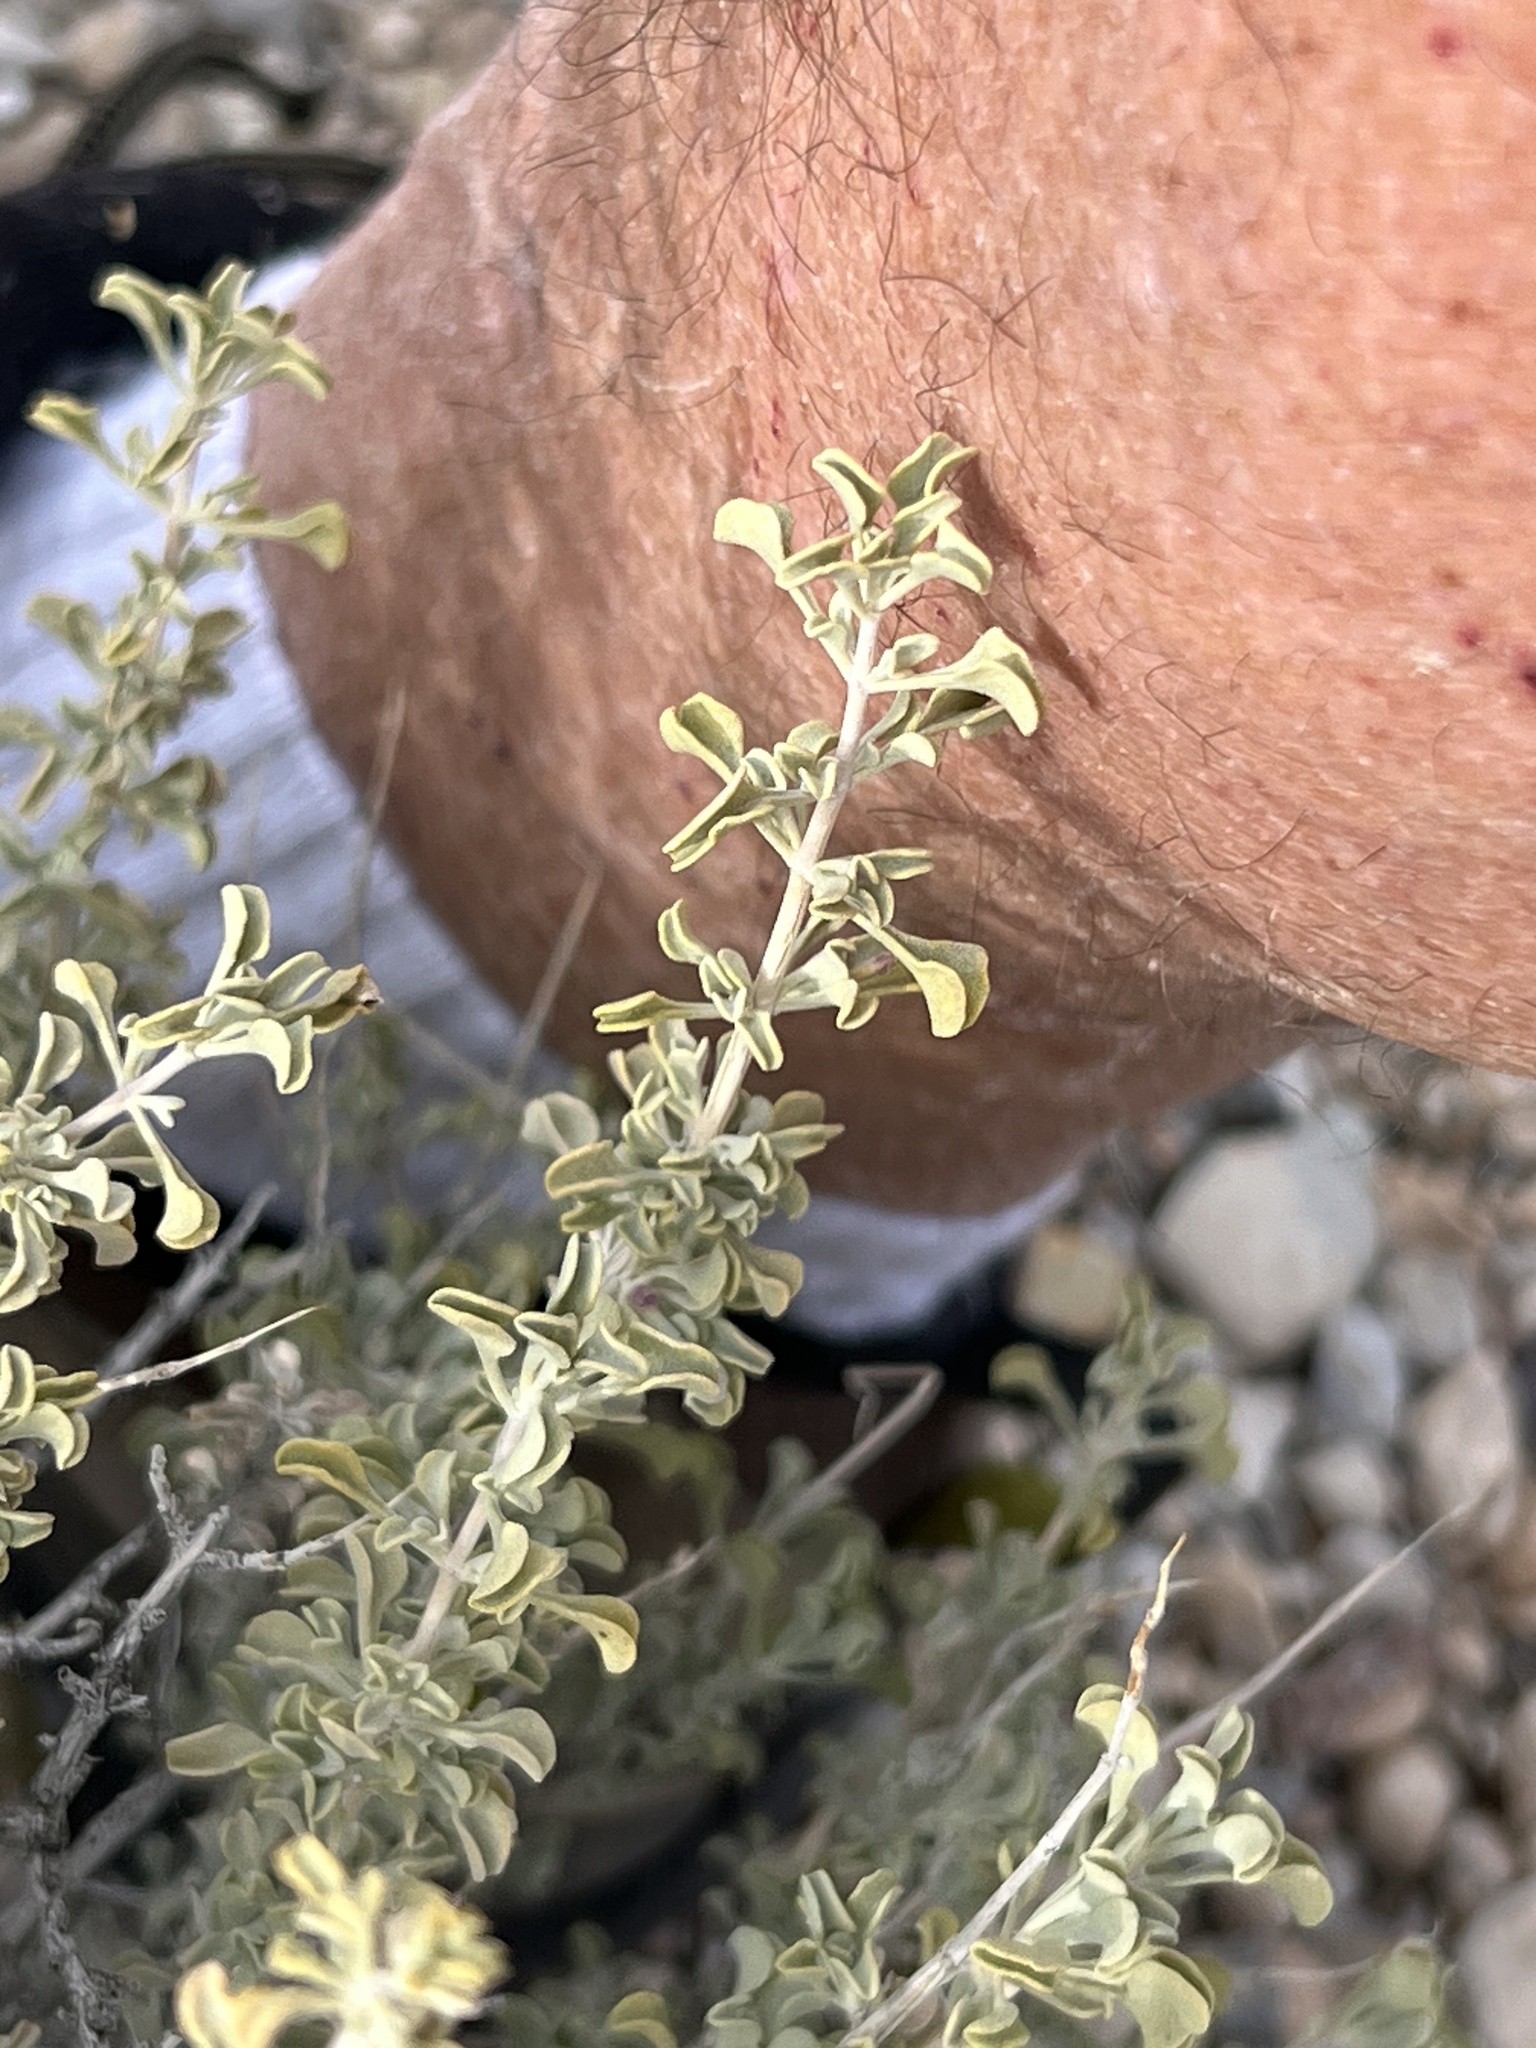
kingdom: Plantae
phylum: Tracheophyta
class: Magnoliopsida
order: Lamiales
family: Lamiaceae
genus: Salvia
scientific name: Salvia dorrii
